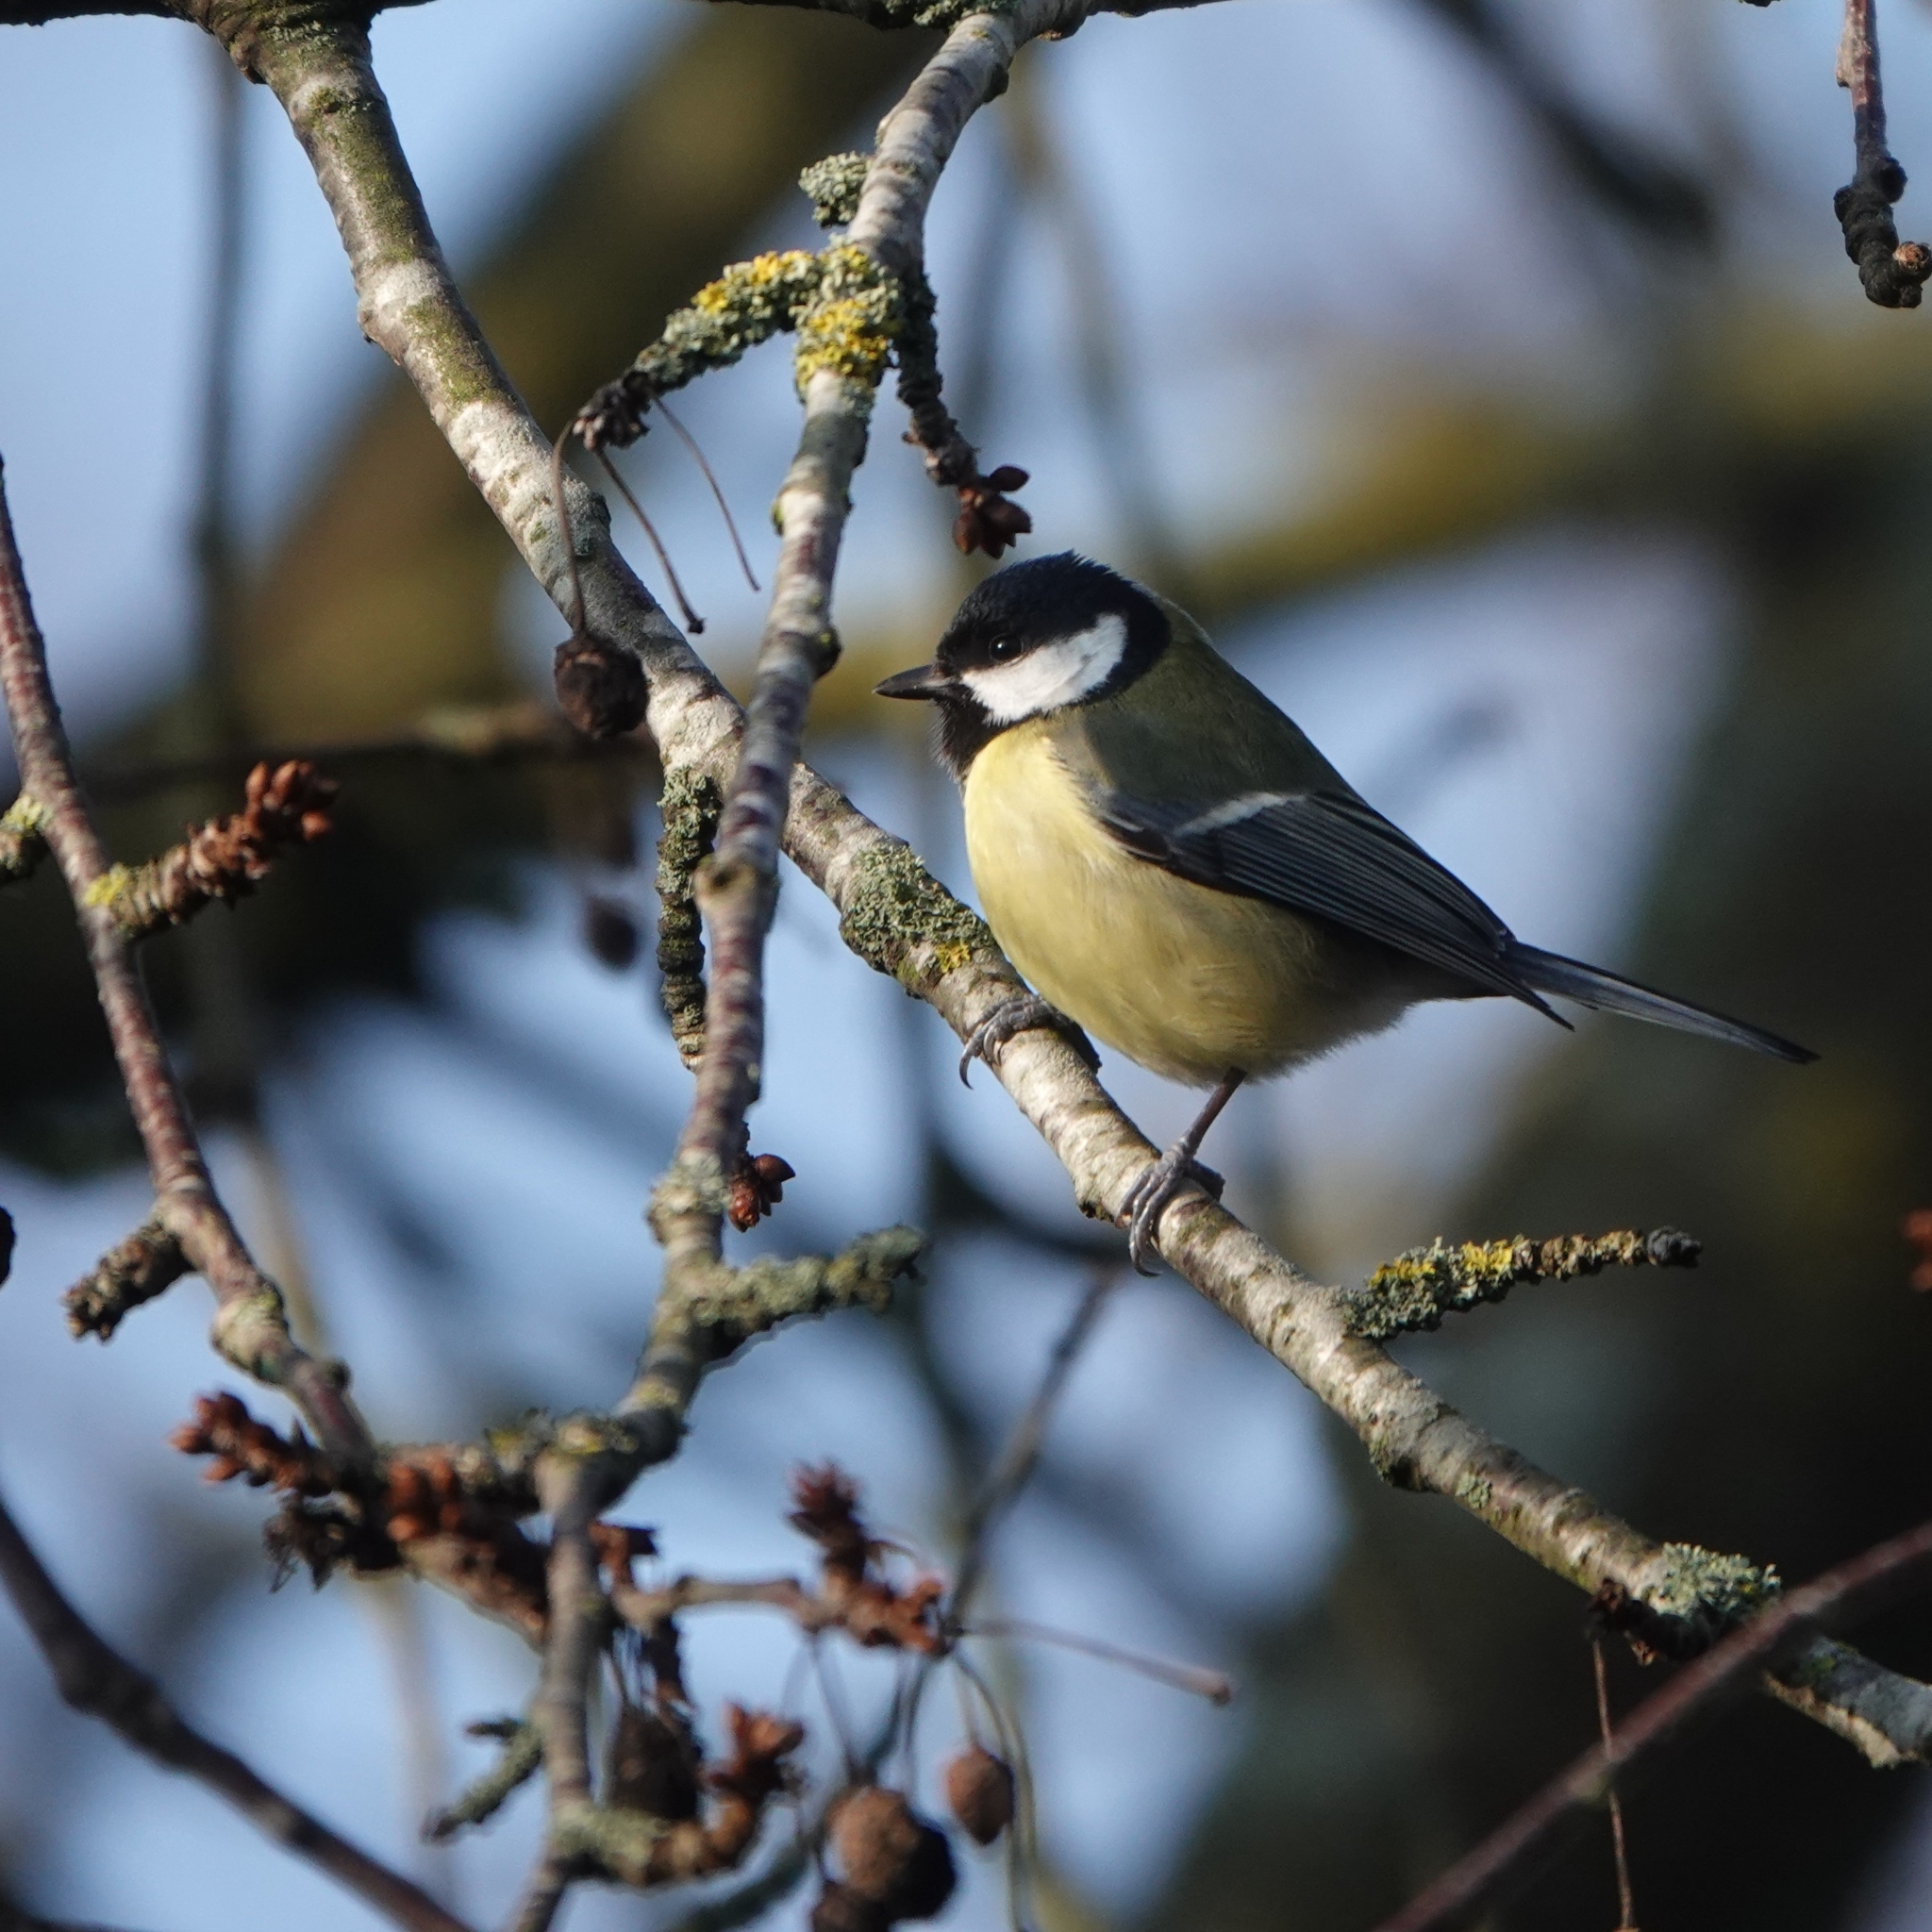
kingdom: Animalia
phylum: Chordata
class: Aves
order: Passeriformes
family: Paridae
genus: Parus
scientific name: Parus major
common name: Great tit
